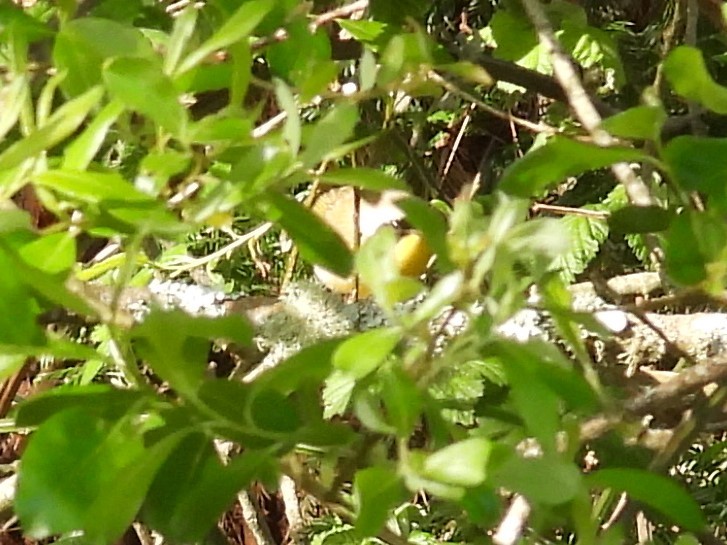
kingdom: Animalia
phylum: Chordata
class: Aves
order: Passeriformes
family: Parulidae
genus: Geothlypis
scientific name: Geothlypis trichas
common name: Common yellowthroat
